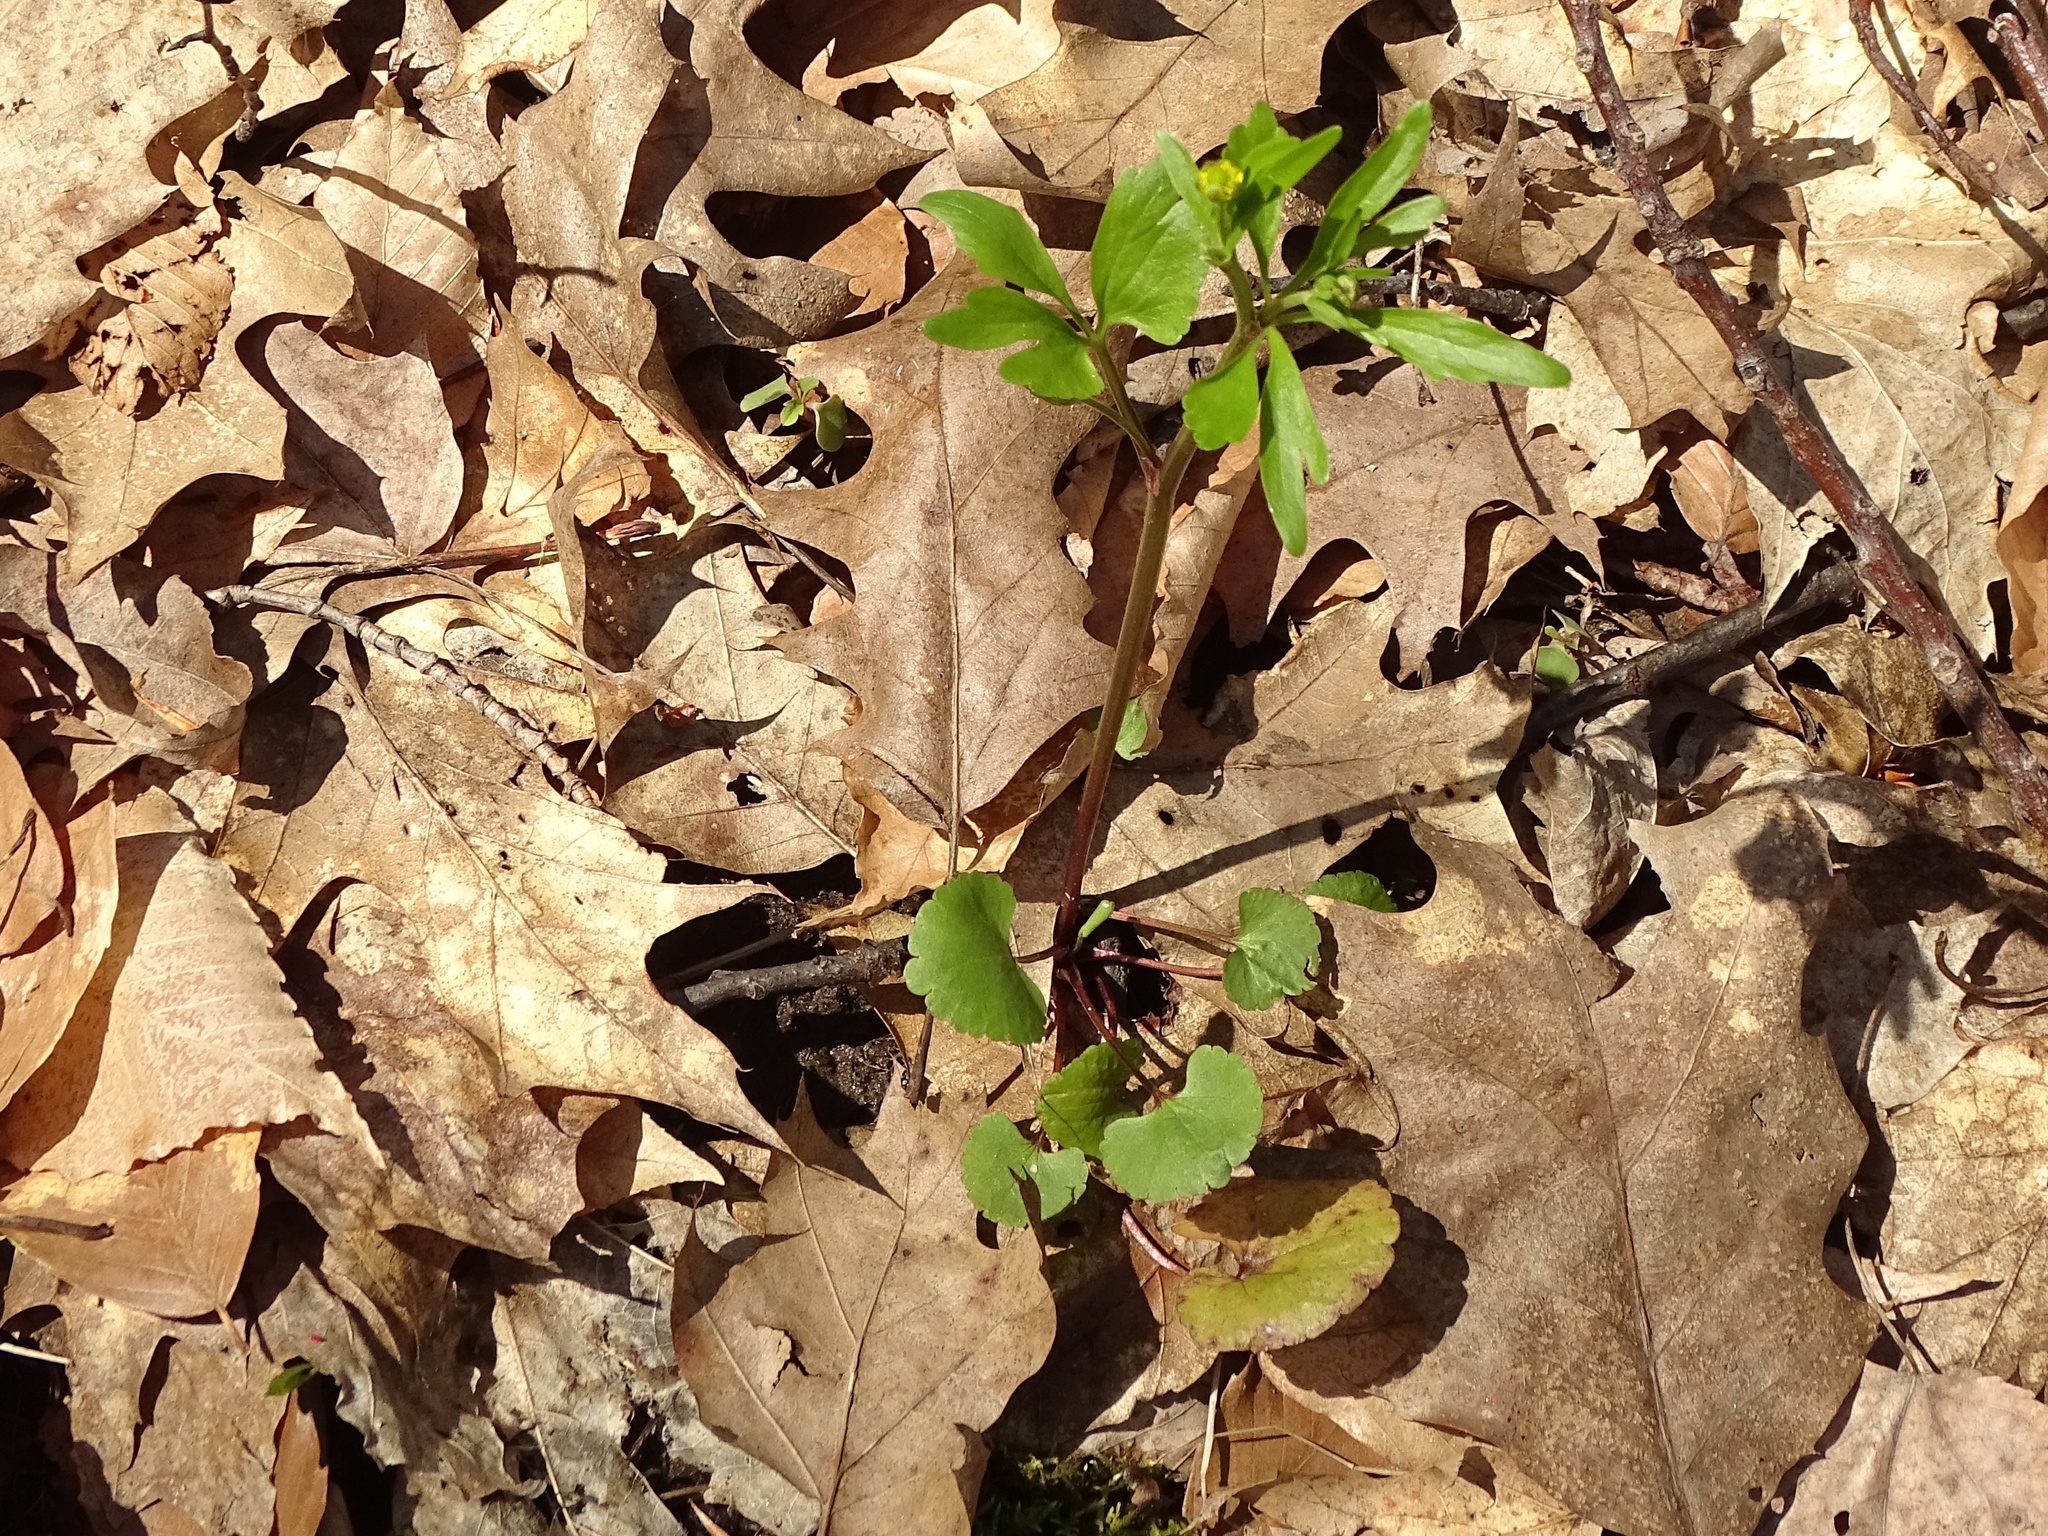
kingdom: Plantae
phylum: Tracheophyta
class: Magnoliopsida
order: Ranunculales
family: Ranunculaceae
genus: Ranunculus
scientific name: Ranunculus abortivus
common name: Early wood buttercup
